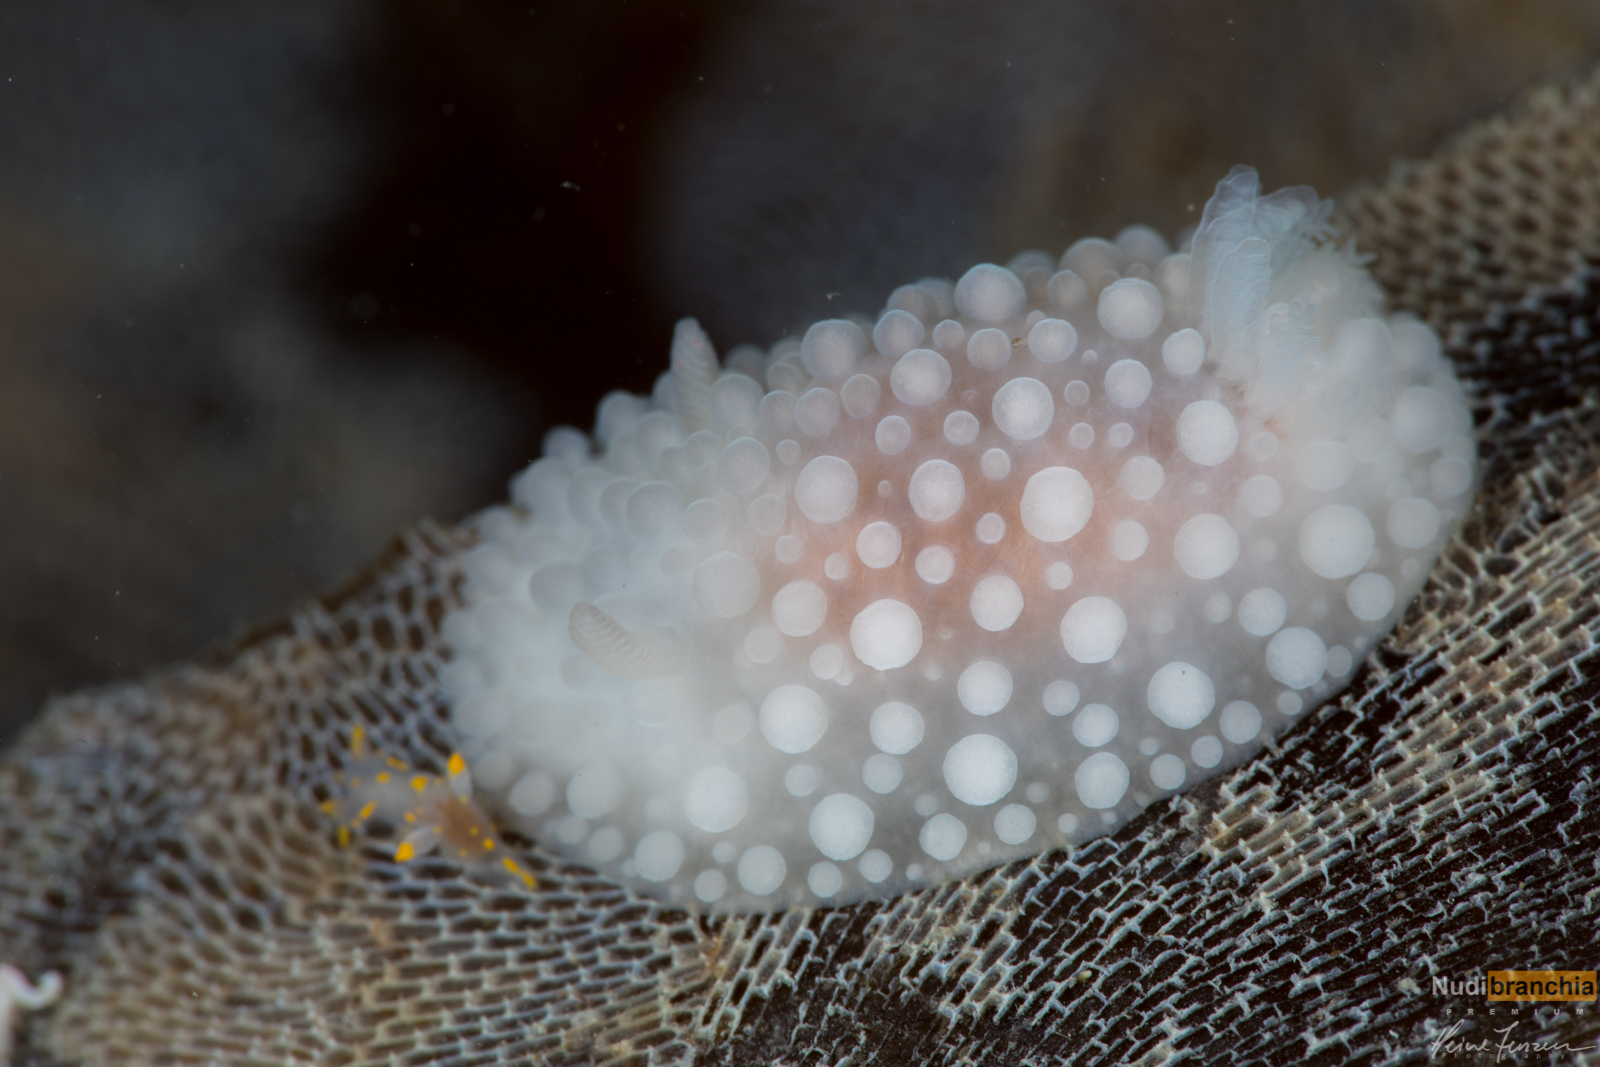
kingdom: Animalia
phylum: Mollusca
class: Gastropoda
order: Nudibranchia
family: Onchidorididae
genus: Adalaria
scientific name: Adalaria proxima
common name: False doris
